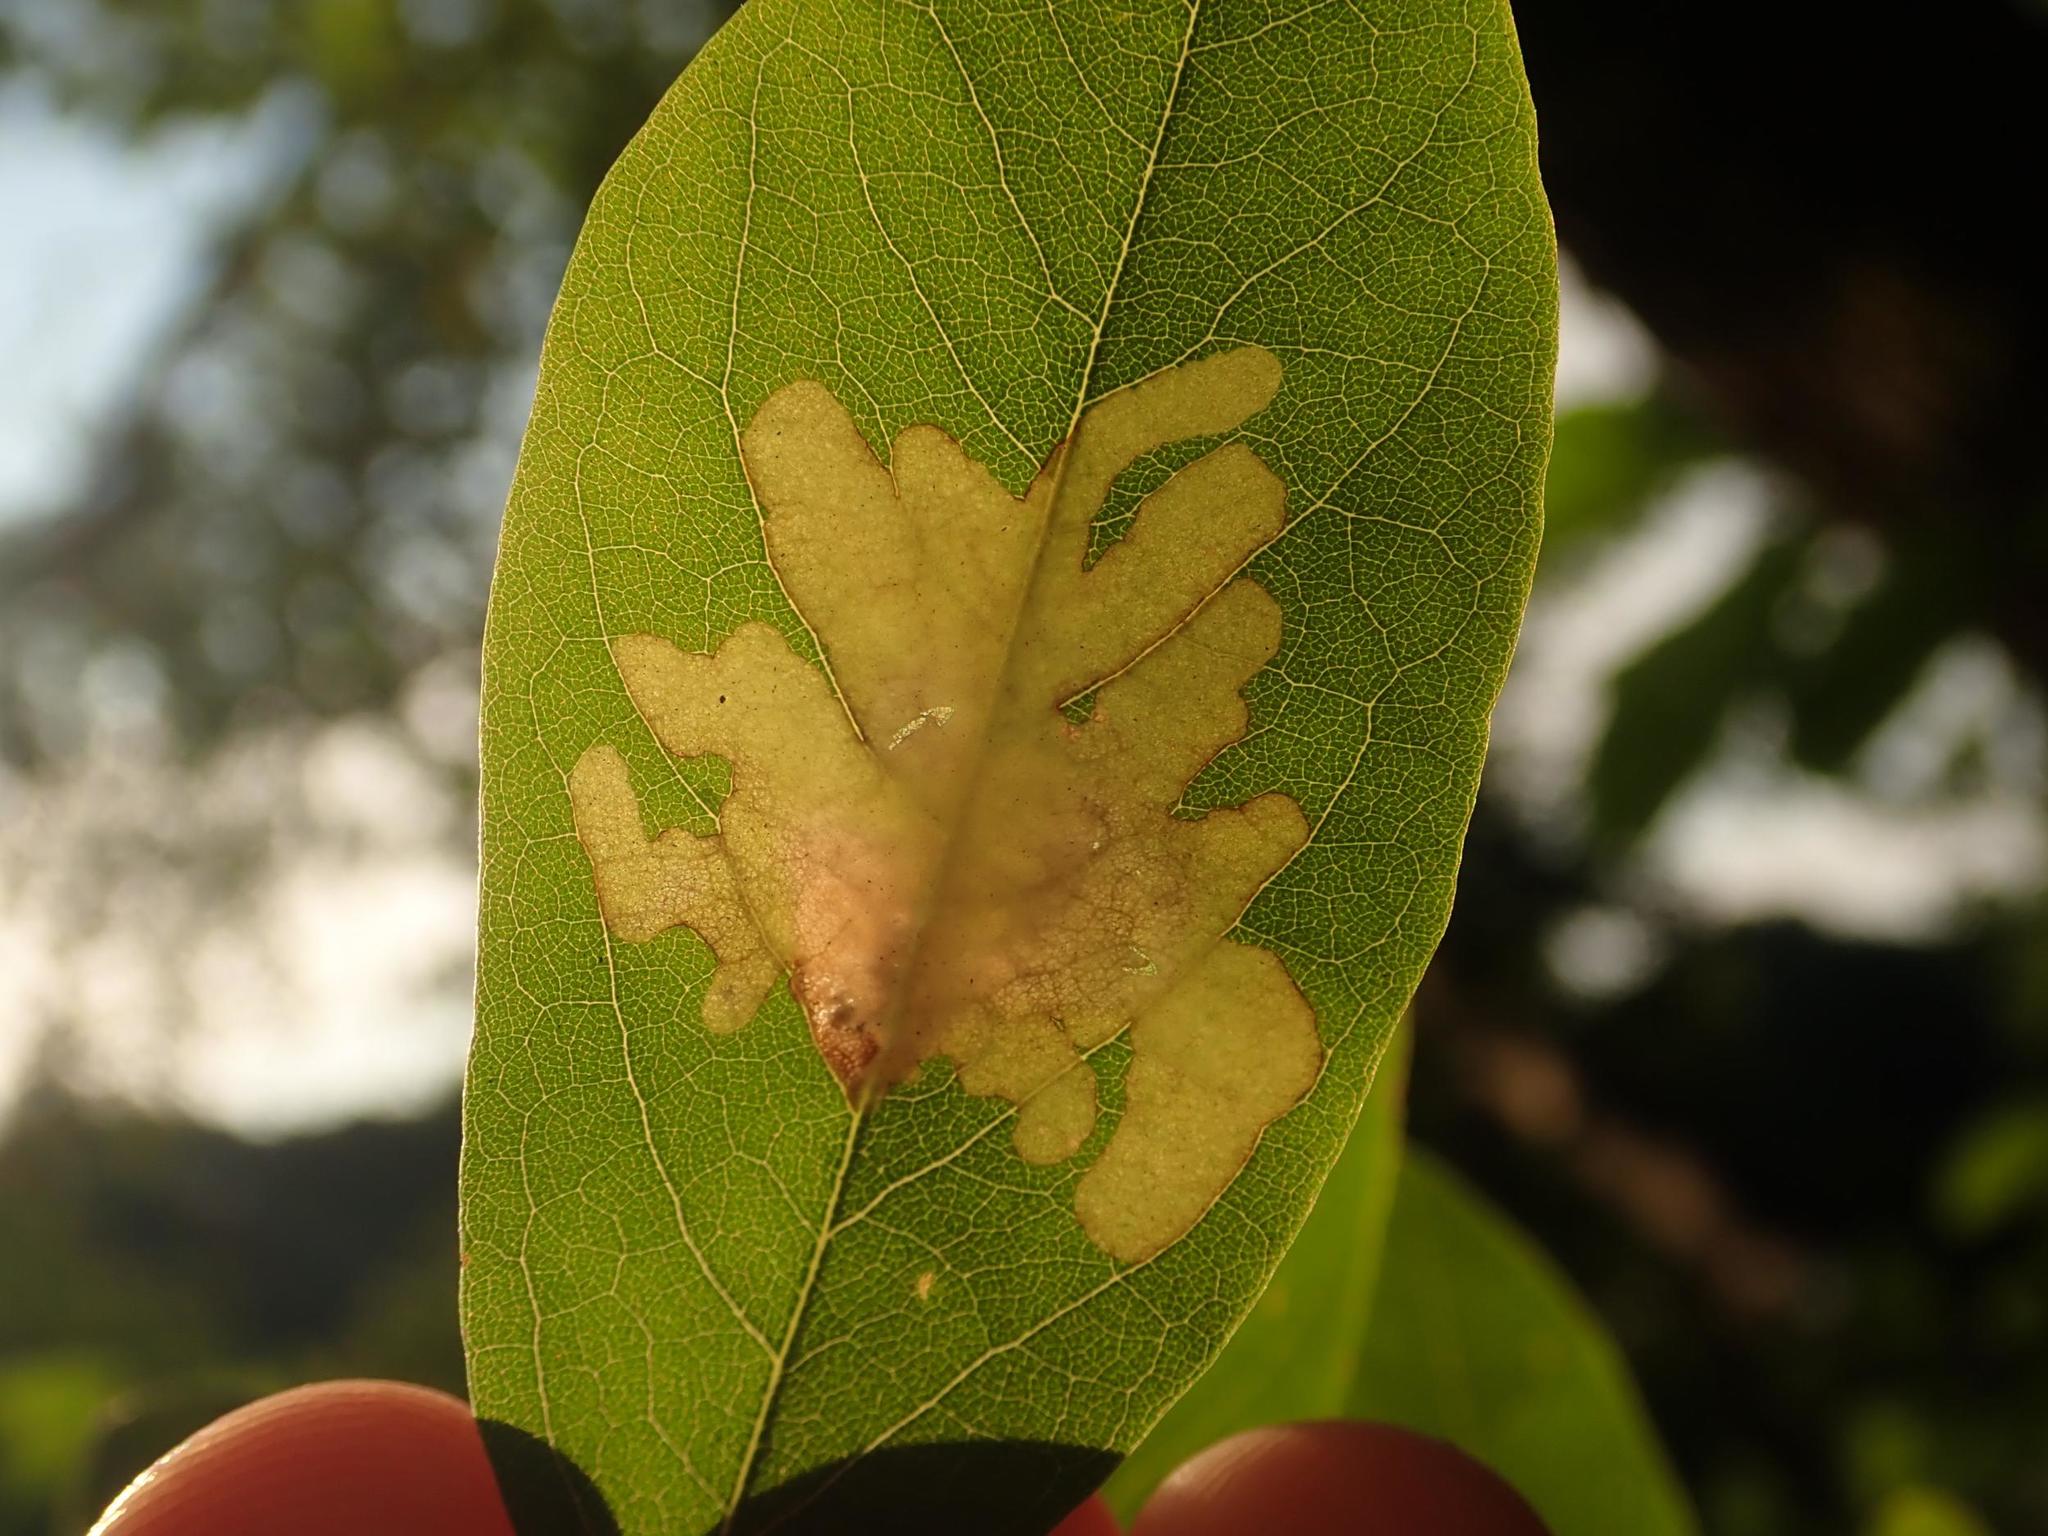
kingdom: Animalia
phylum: Arthropoda
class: Insecta
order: Lepidoptera
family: Gracillariidae
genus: Parectopa
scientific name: Parectopa robiniella
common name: Locust digitate leafminer
